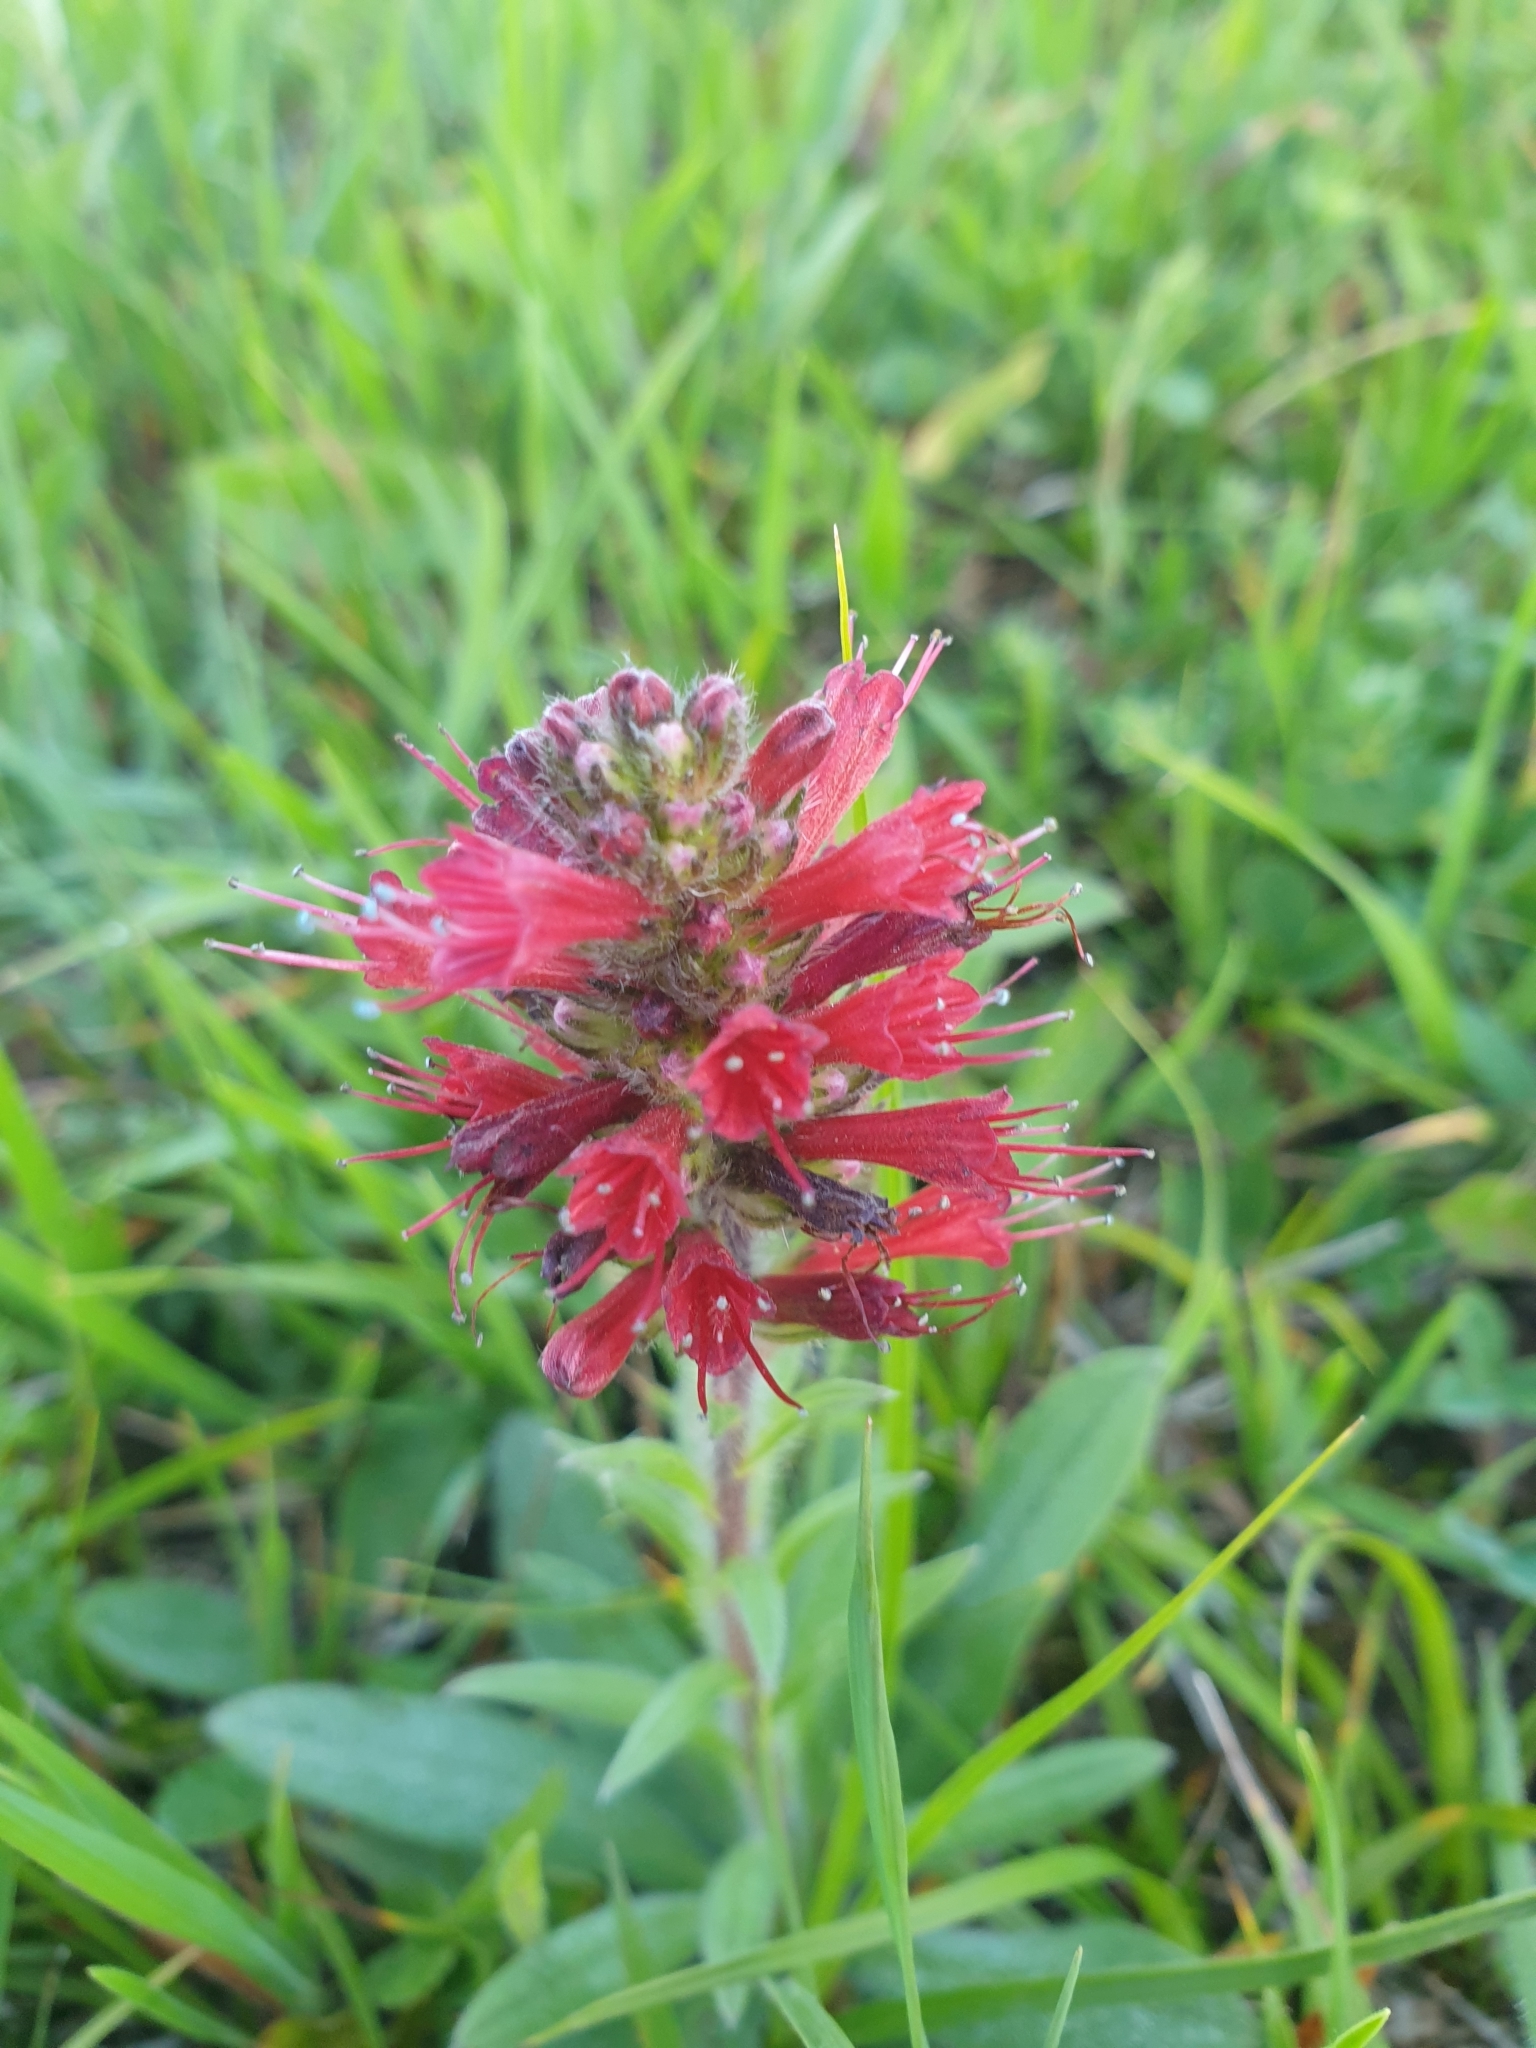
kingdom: Plantae
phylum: Tracheophyta
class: Magnoliopsida
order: Boraginales
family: Boraginaceae
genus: Pontechium
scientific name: Pontechium maculatum
